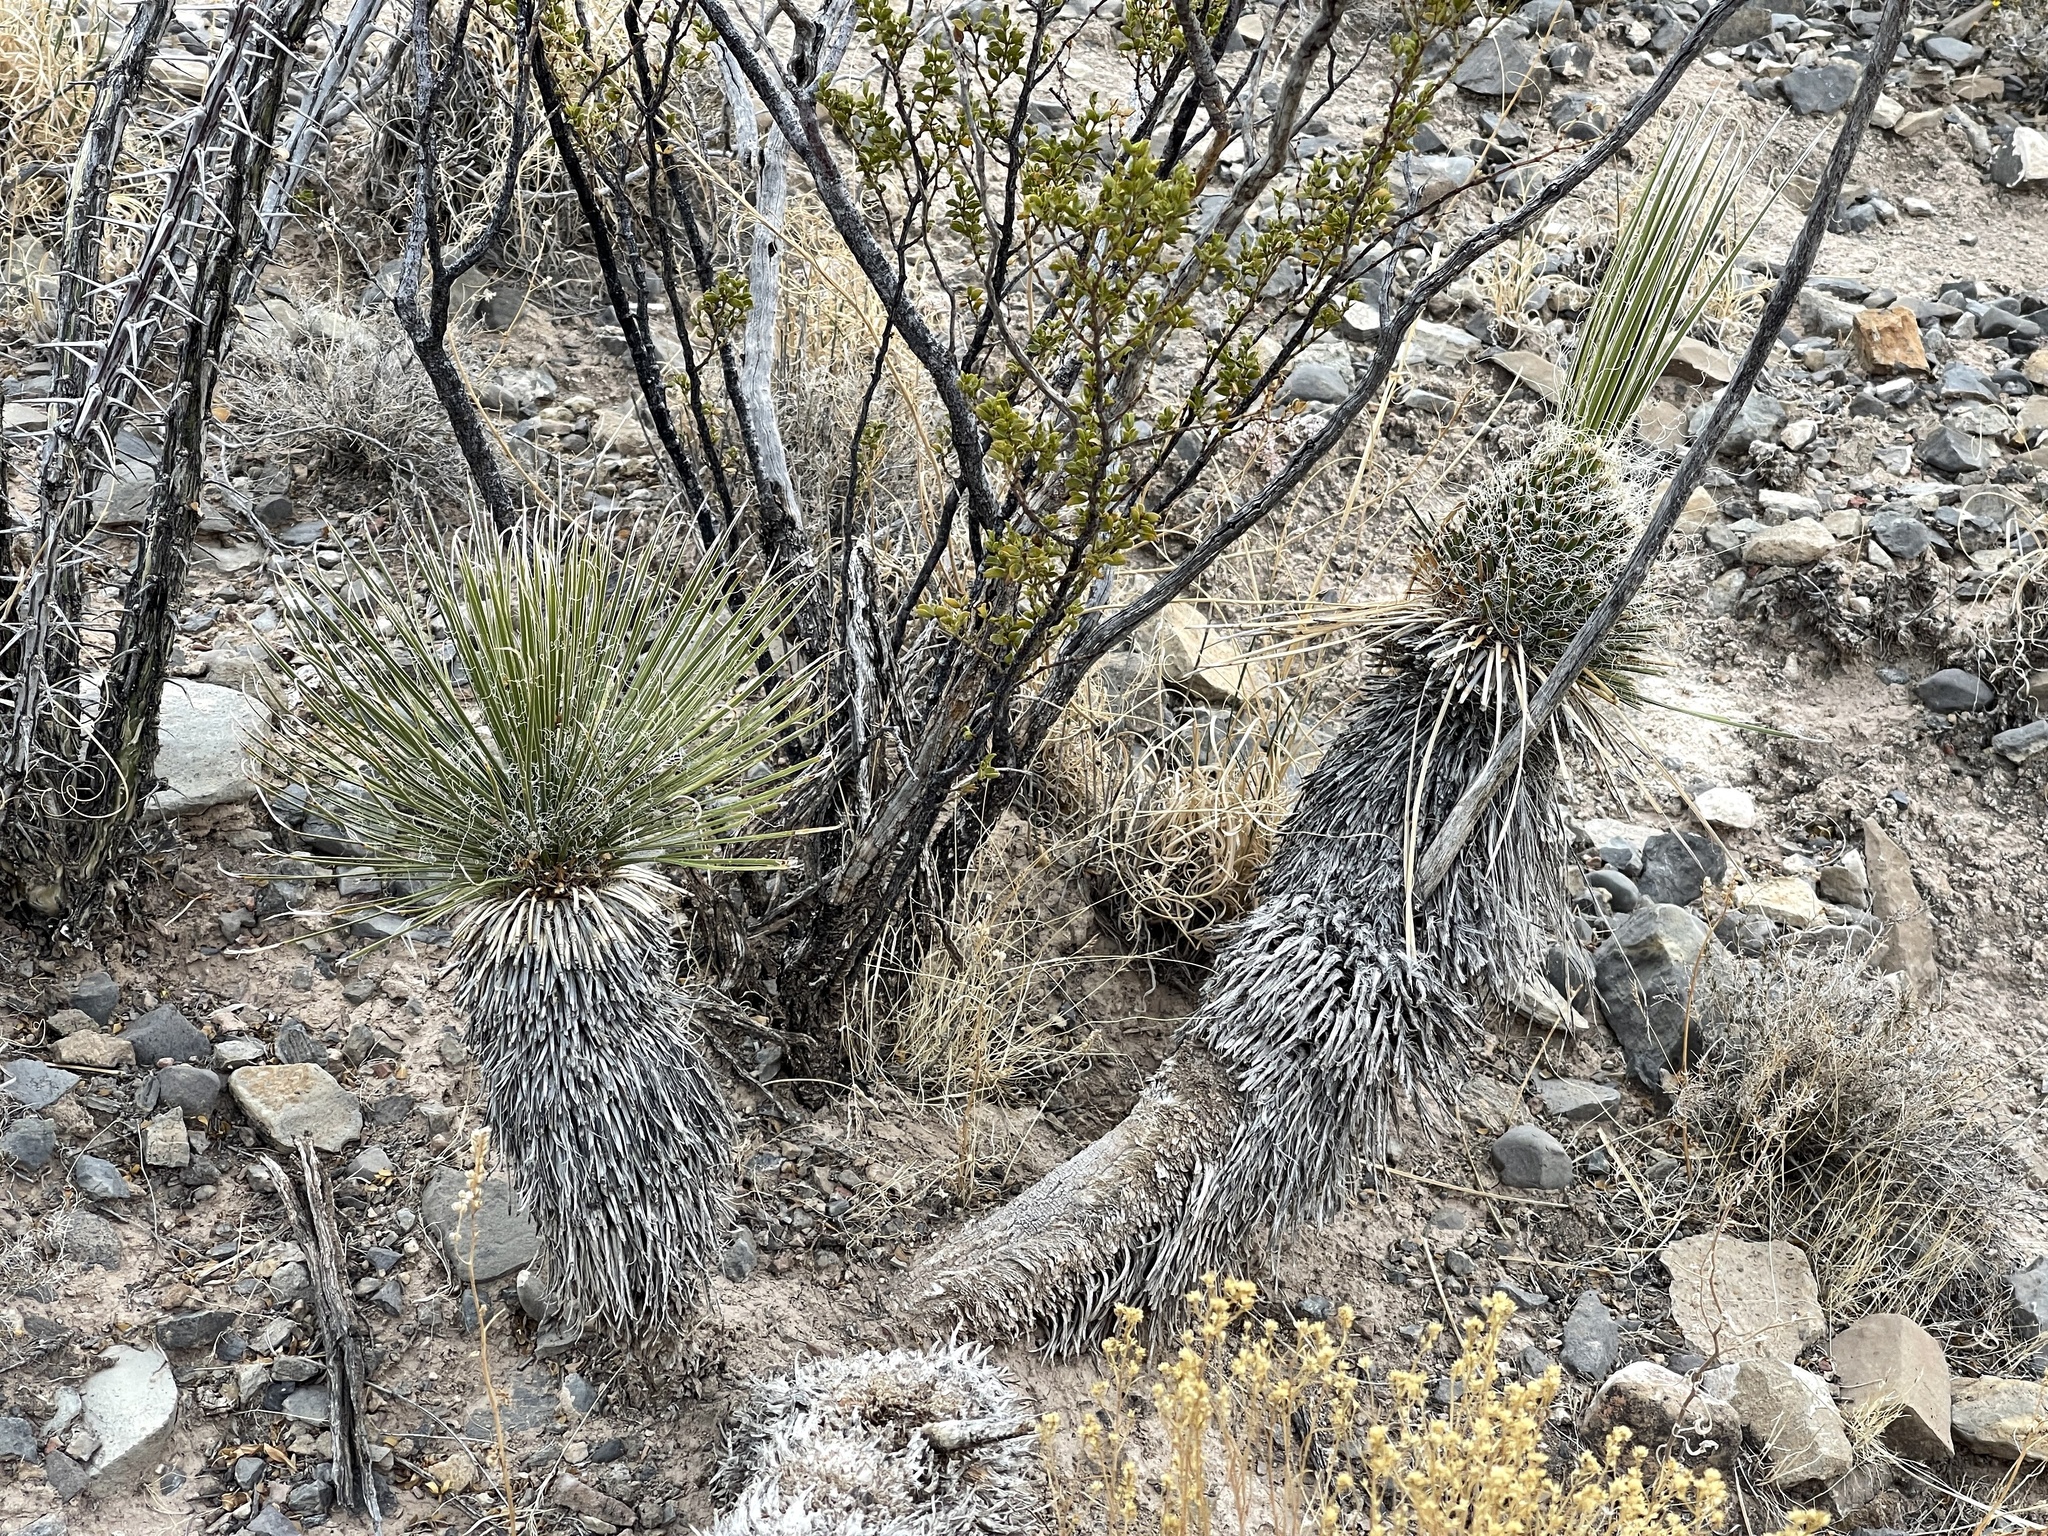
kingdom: Plantae
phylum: Tracheophyta
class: Liliopsida
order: Asparagales
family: Asparagaceae
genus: Yucca
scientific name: Yucca elata
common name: Palmella
